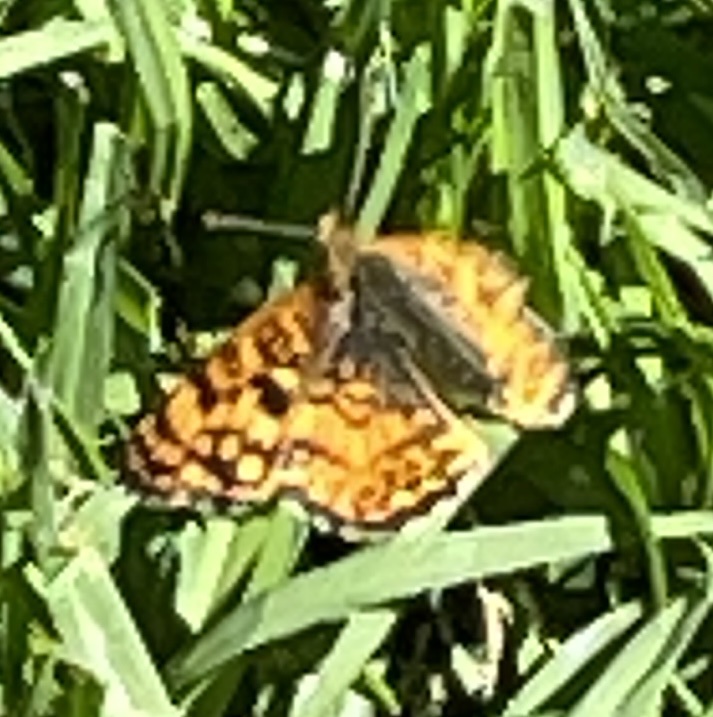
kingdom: Animalia
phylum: Arthropoda
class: Insecta
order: Lepidoptera
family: Nymphalidae
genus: Eresia
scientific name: Eresia aveyrona
